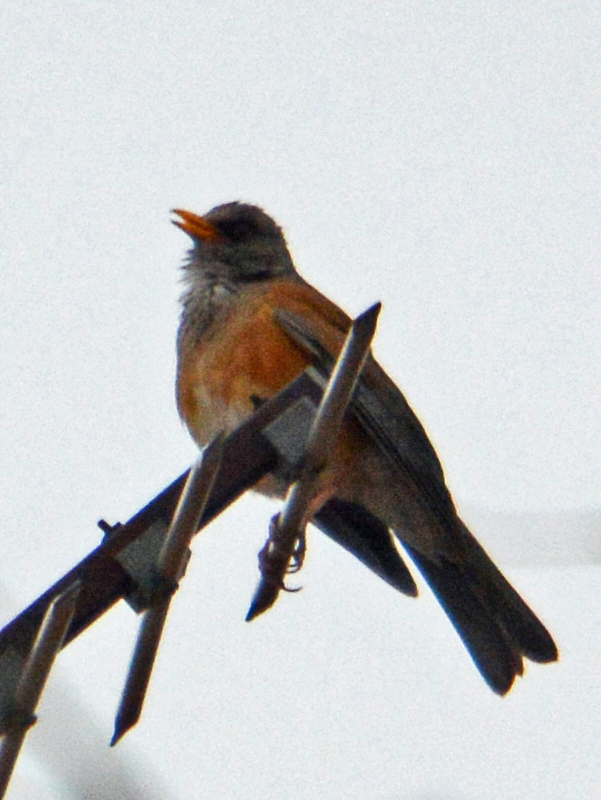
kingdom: Animalia
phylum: Chordata
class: Aves
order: Passeriformes
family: Turdidae
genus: Turdus
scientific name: Turdus rufopalliatus
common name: Rufous-backed robin
